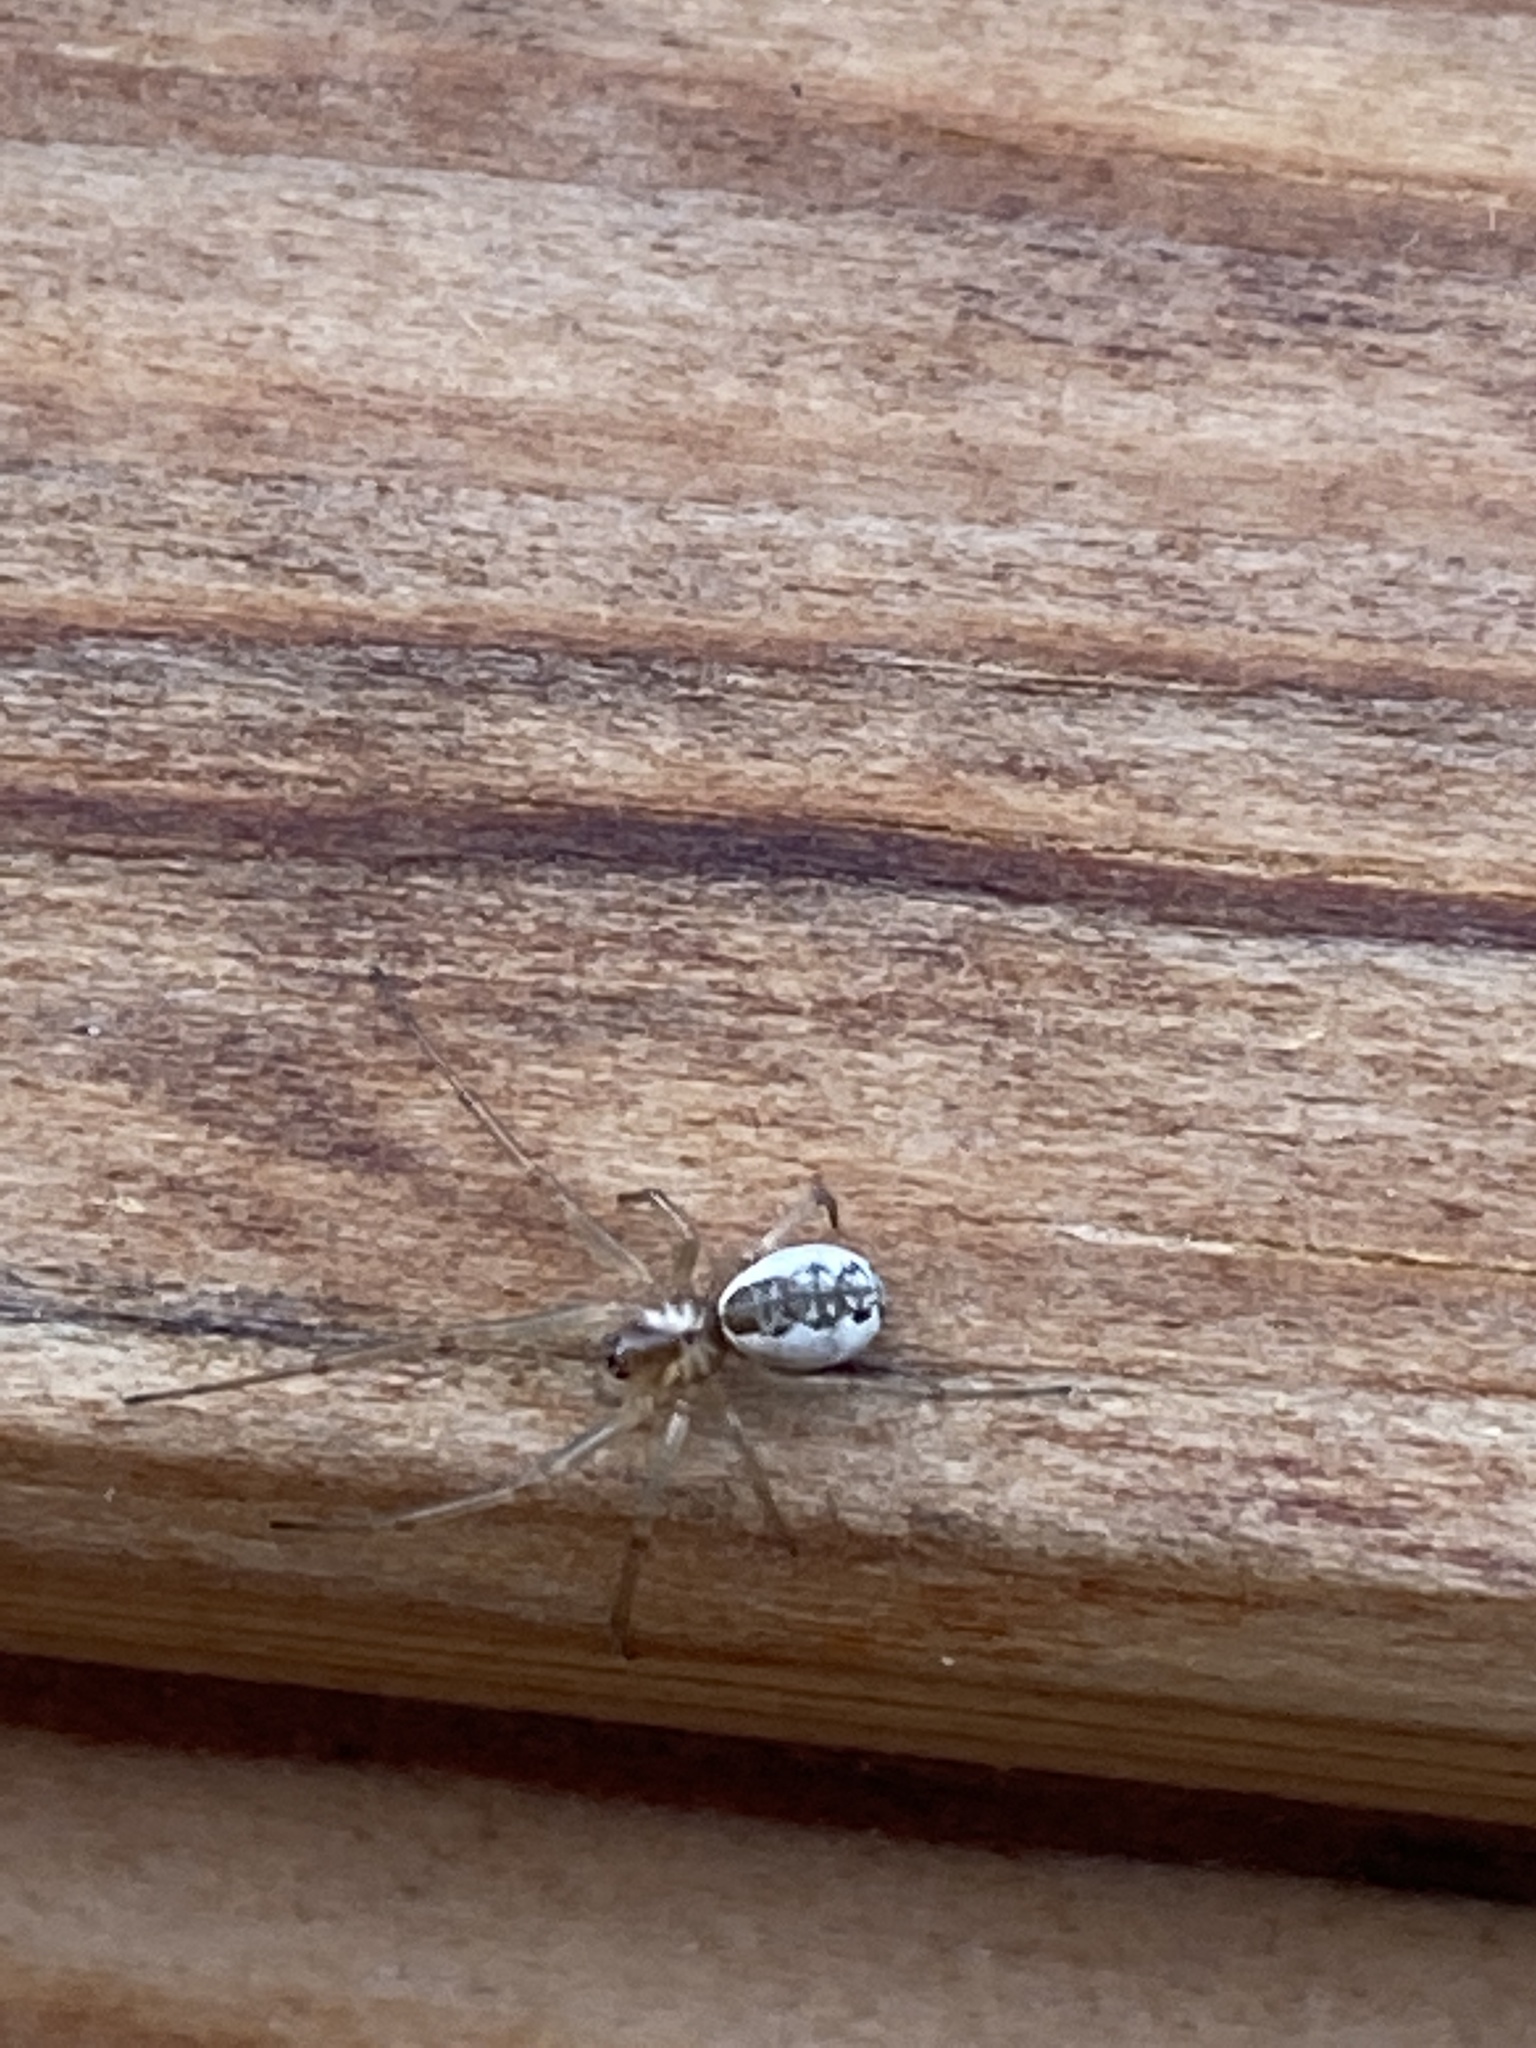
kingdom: Animalia
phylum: Arthropoda
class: Arachnida
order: Araneae
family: Linyphiidae
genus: Neriene
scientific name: Neriene peltata
